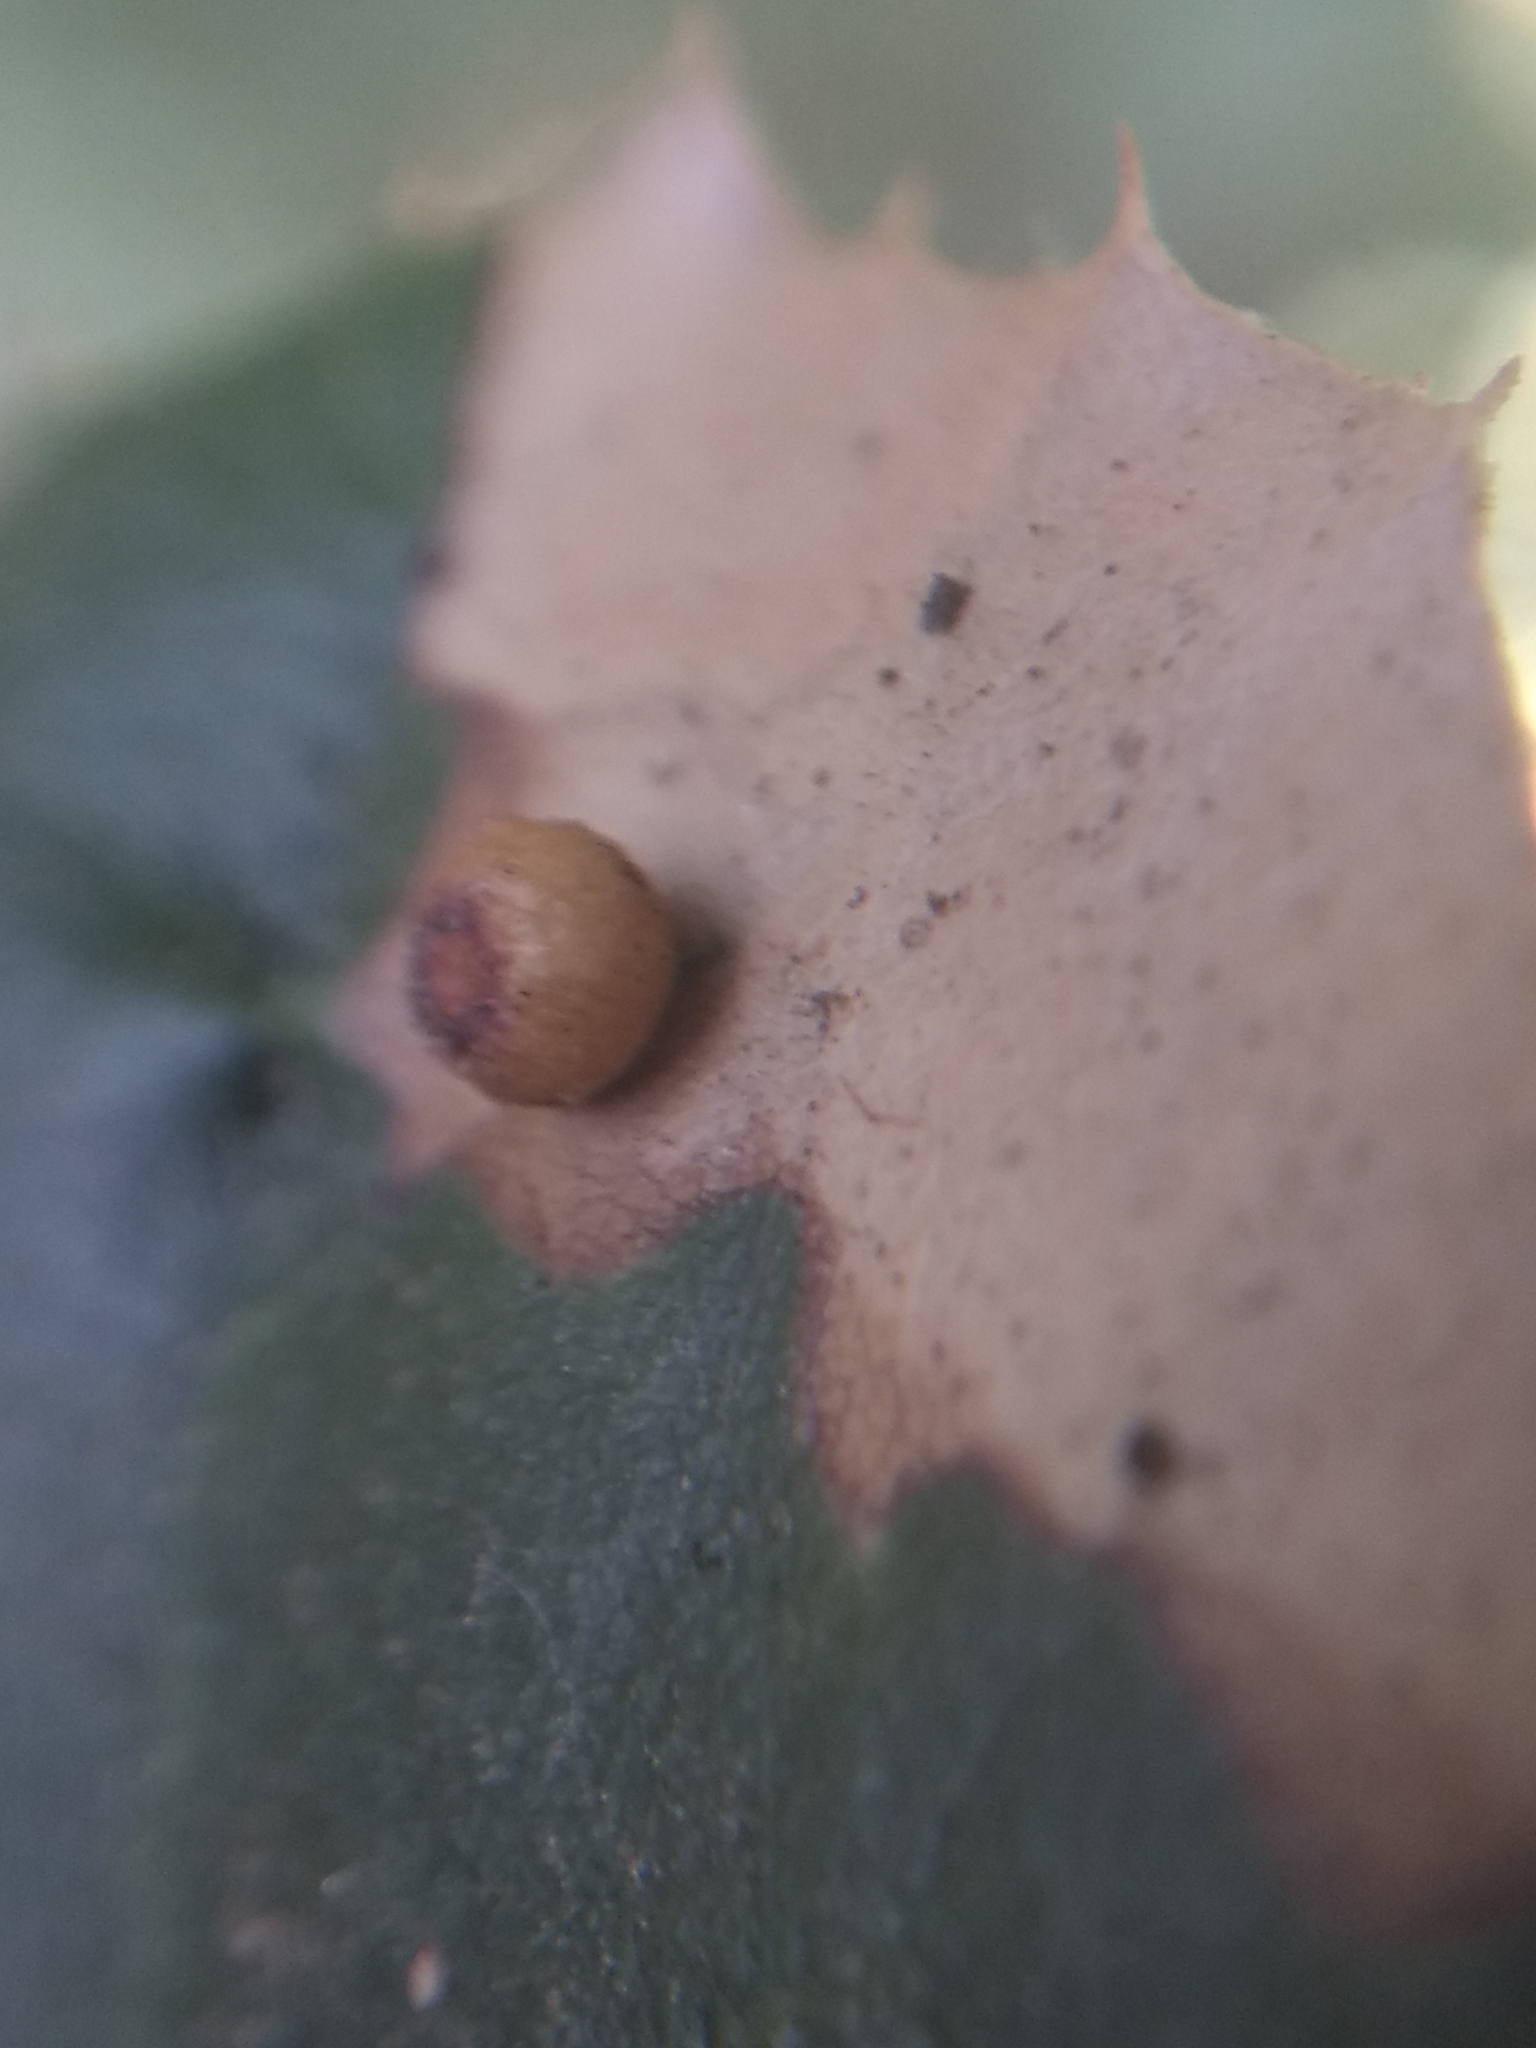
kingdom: Animalia
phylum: Arthropoda
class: Insecta
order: Hymenoptera
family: Cynipidae
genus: Dryocosmus
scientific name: Dryocosmus
